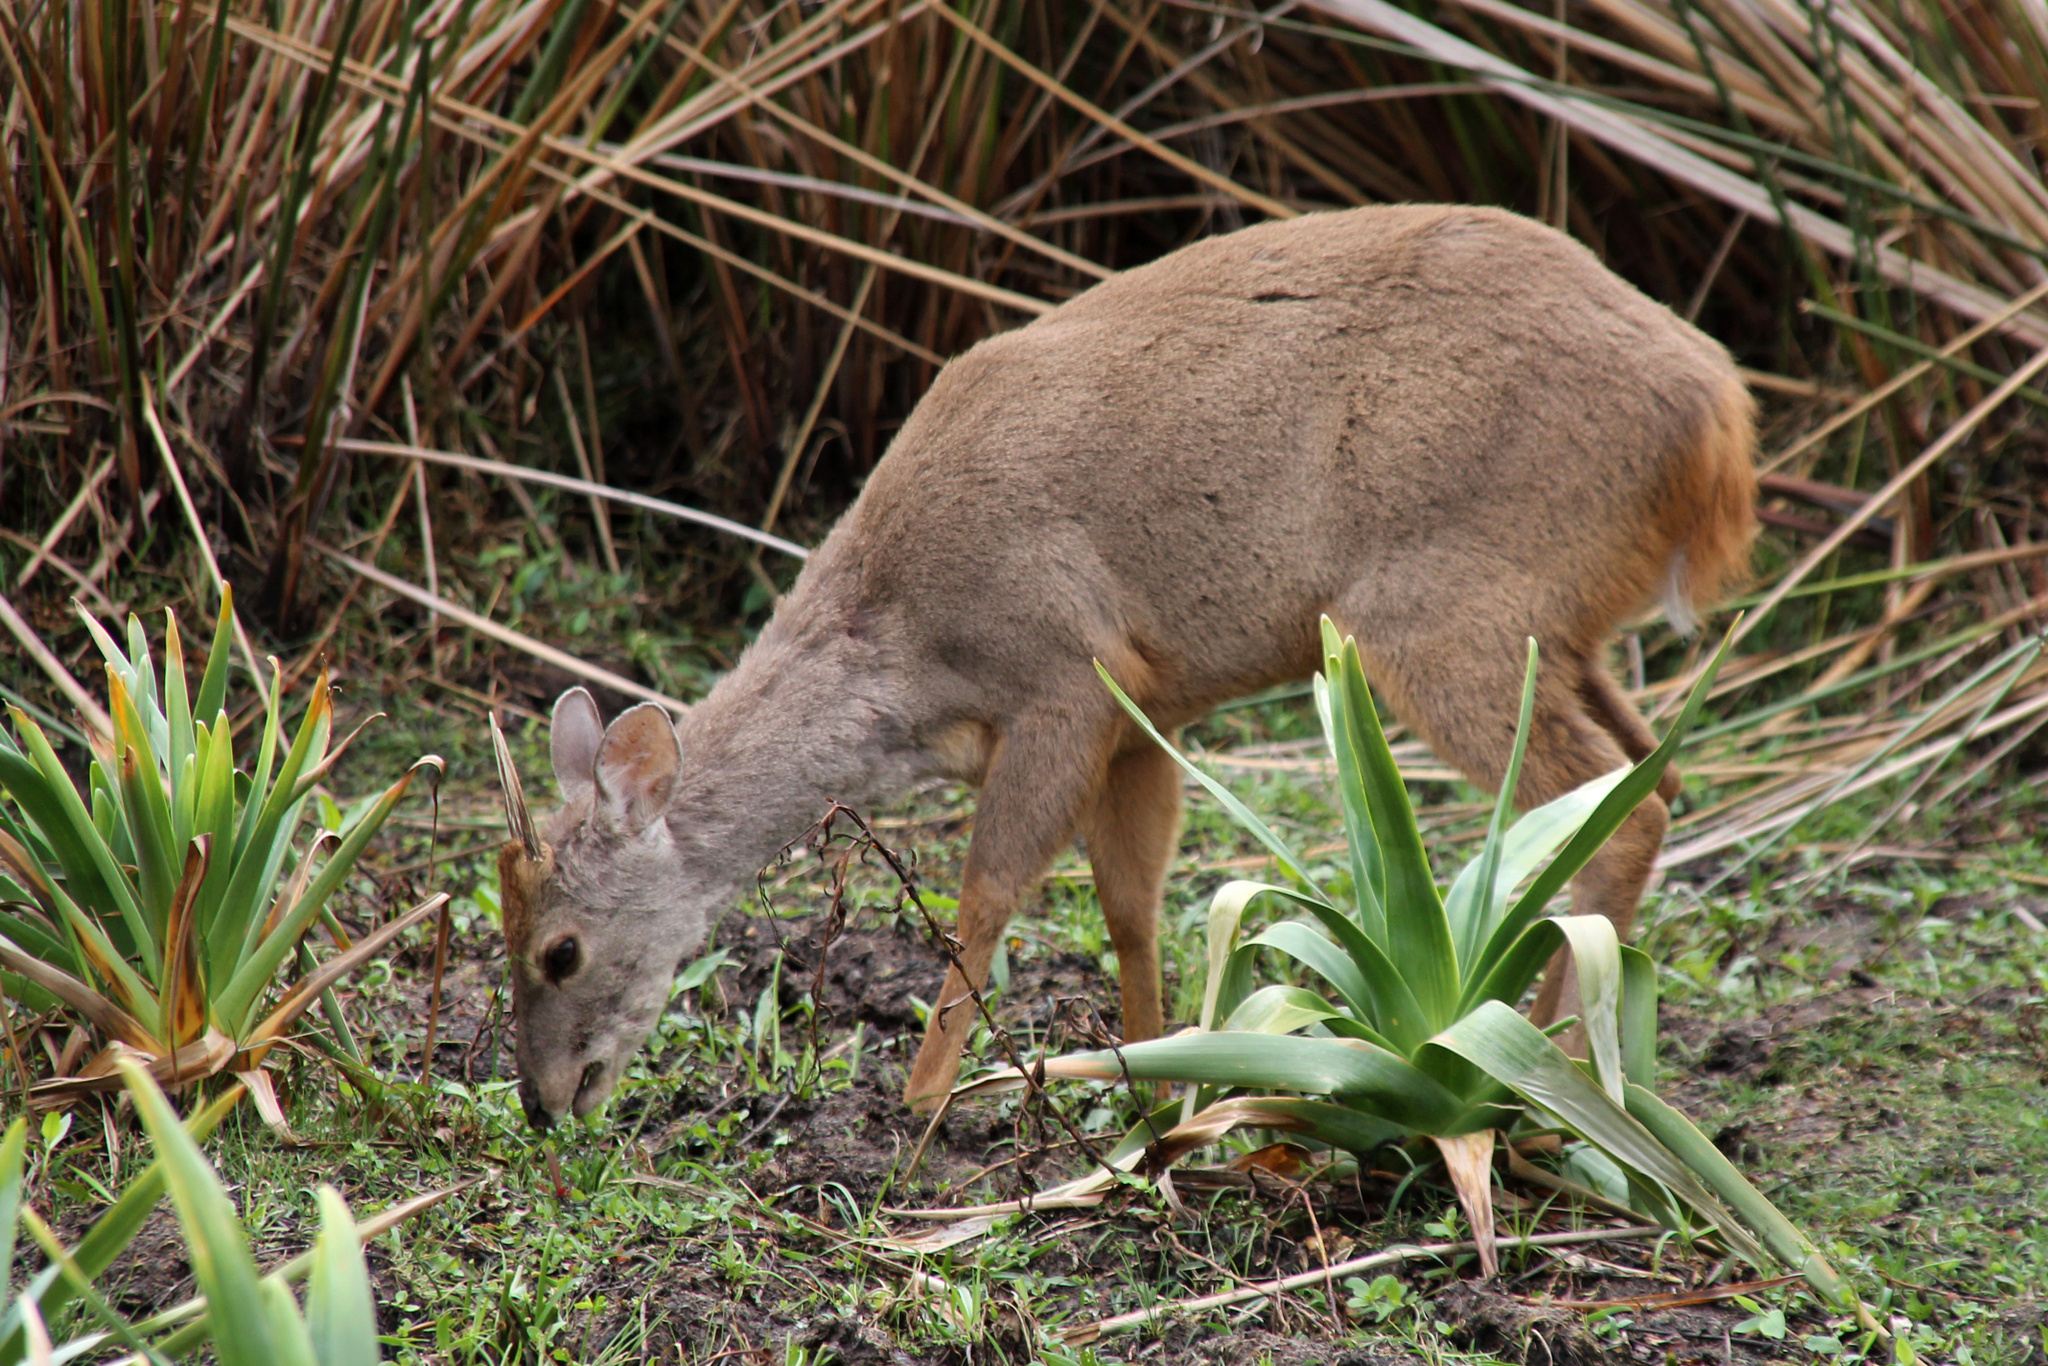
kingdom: Animalia
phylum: Chordata
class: Mammalia
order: Artiodactyla
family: Cervidae
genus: Mazama
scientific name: Mazama gouazoubira
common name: Gray brocket
